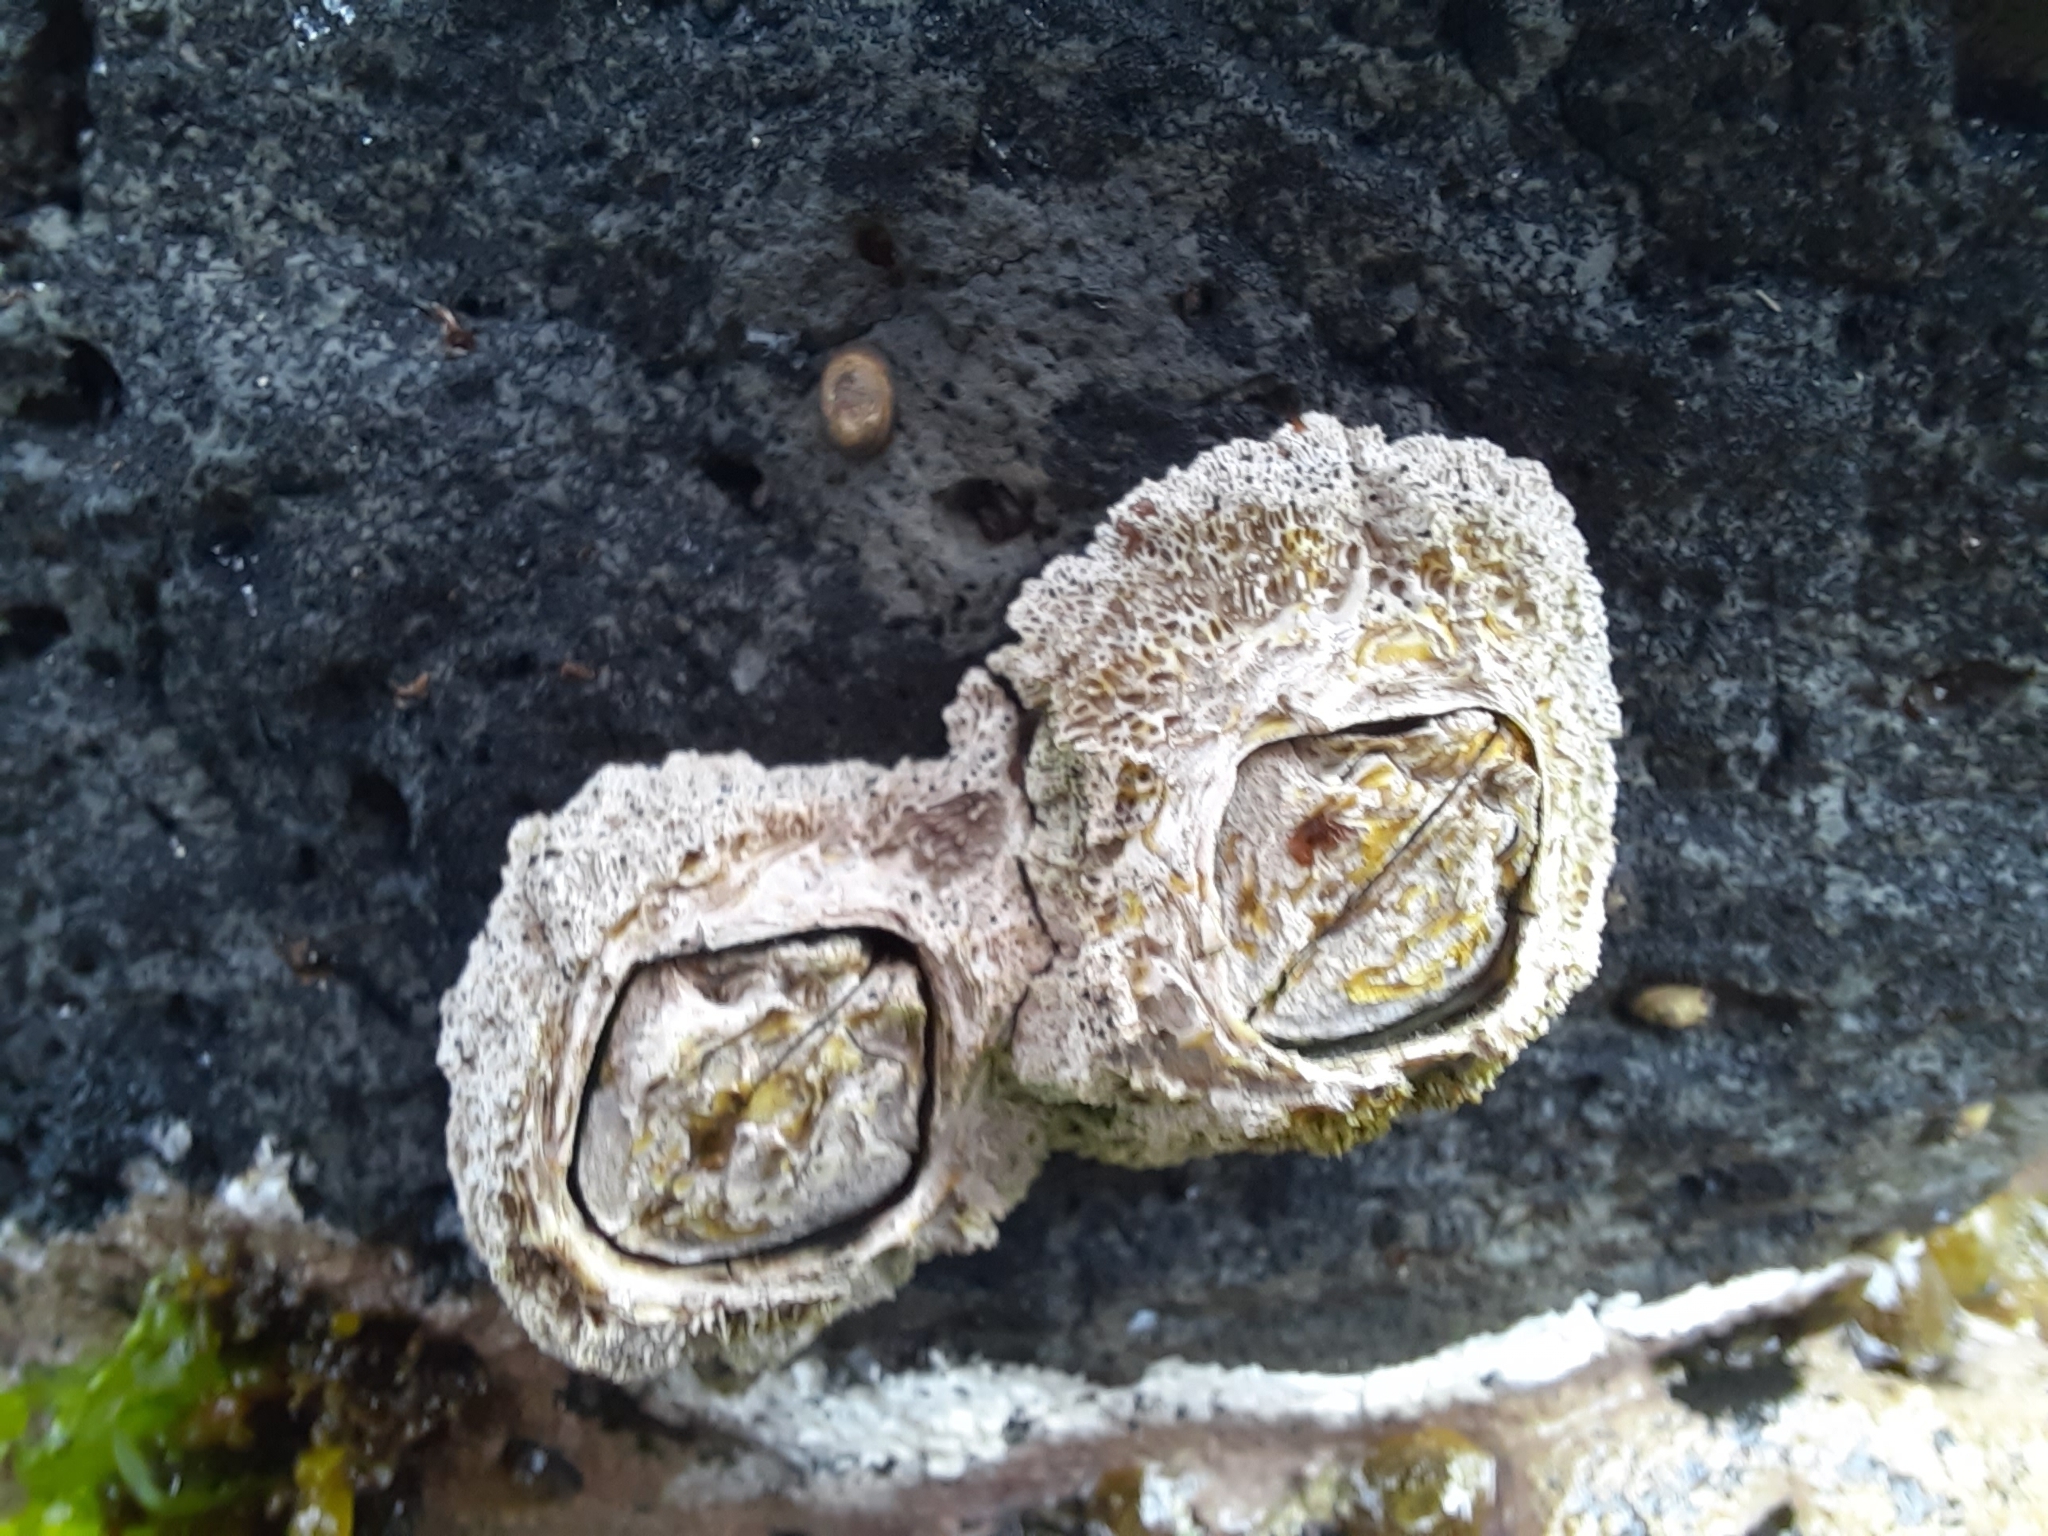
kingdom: Animalia
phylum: Arthropoda
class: Maxillopoda
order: Sessilia
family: Tetraclitidae
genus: Epopella
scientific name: Epopella plicata
